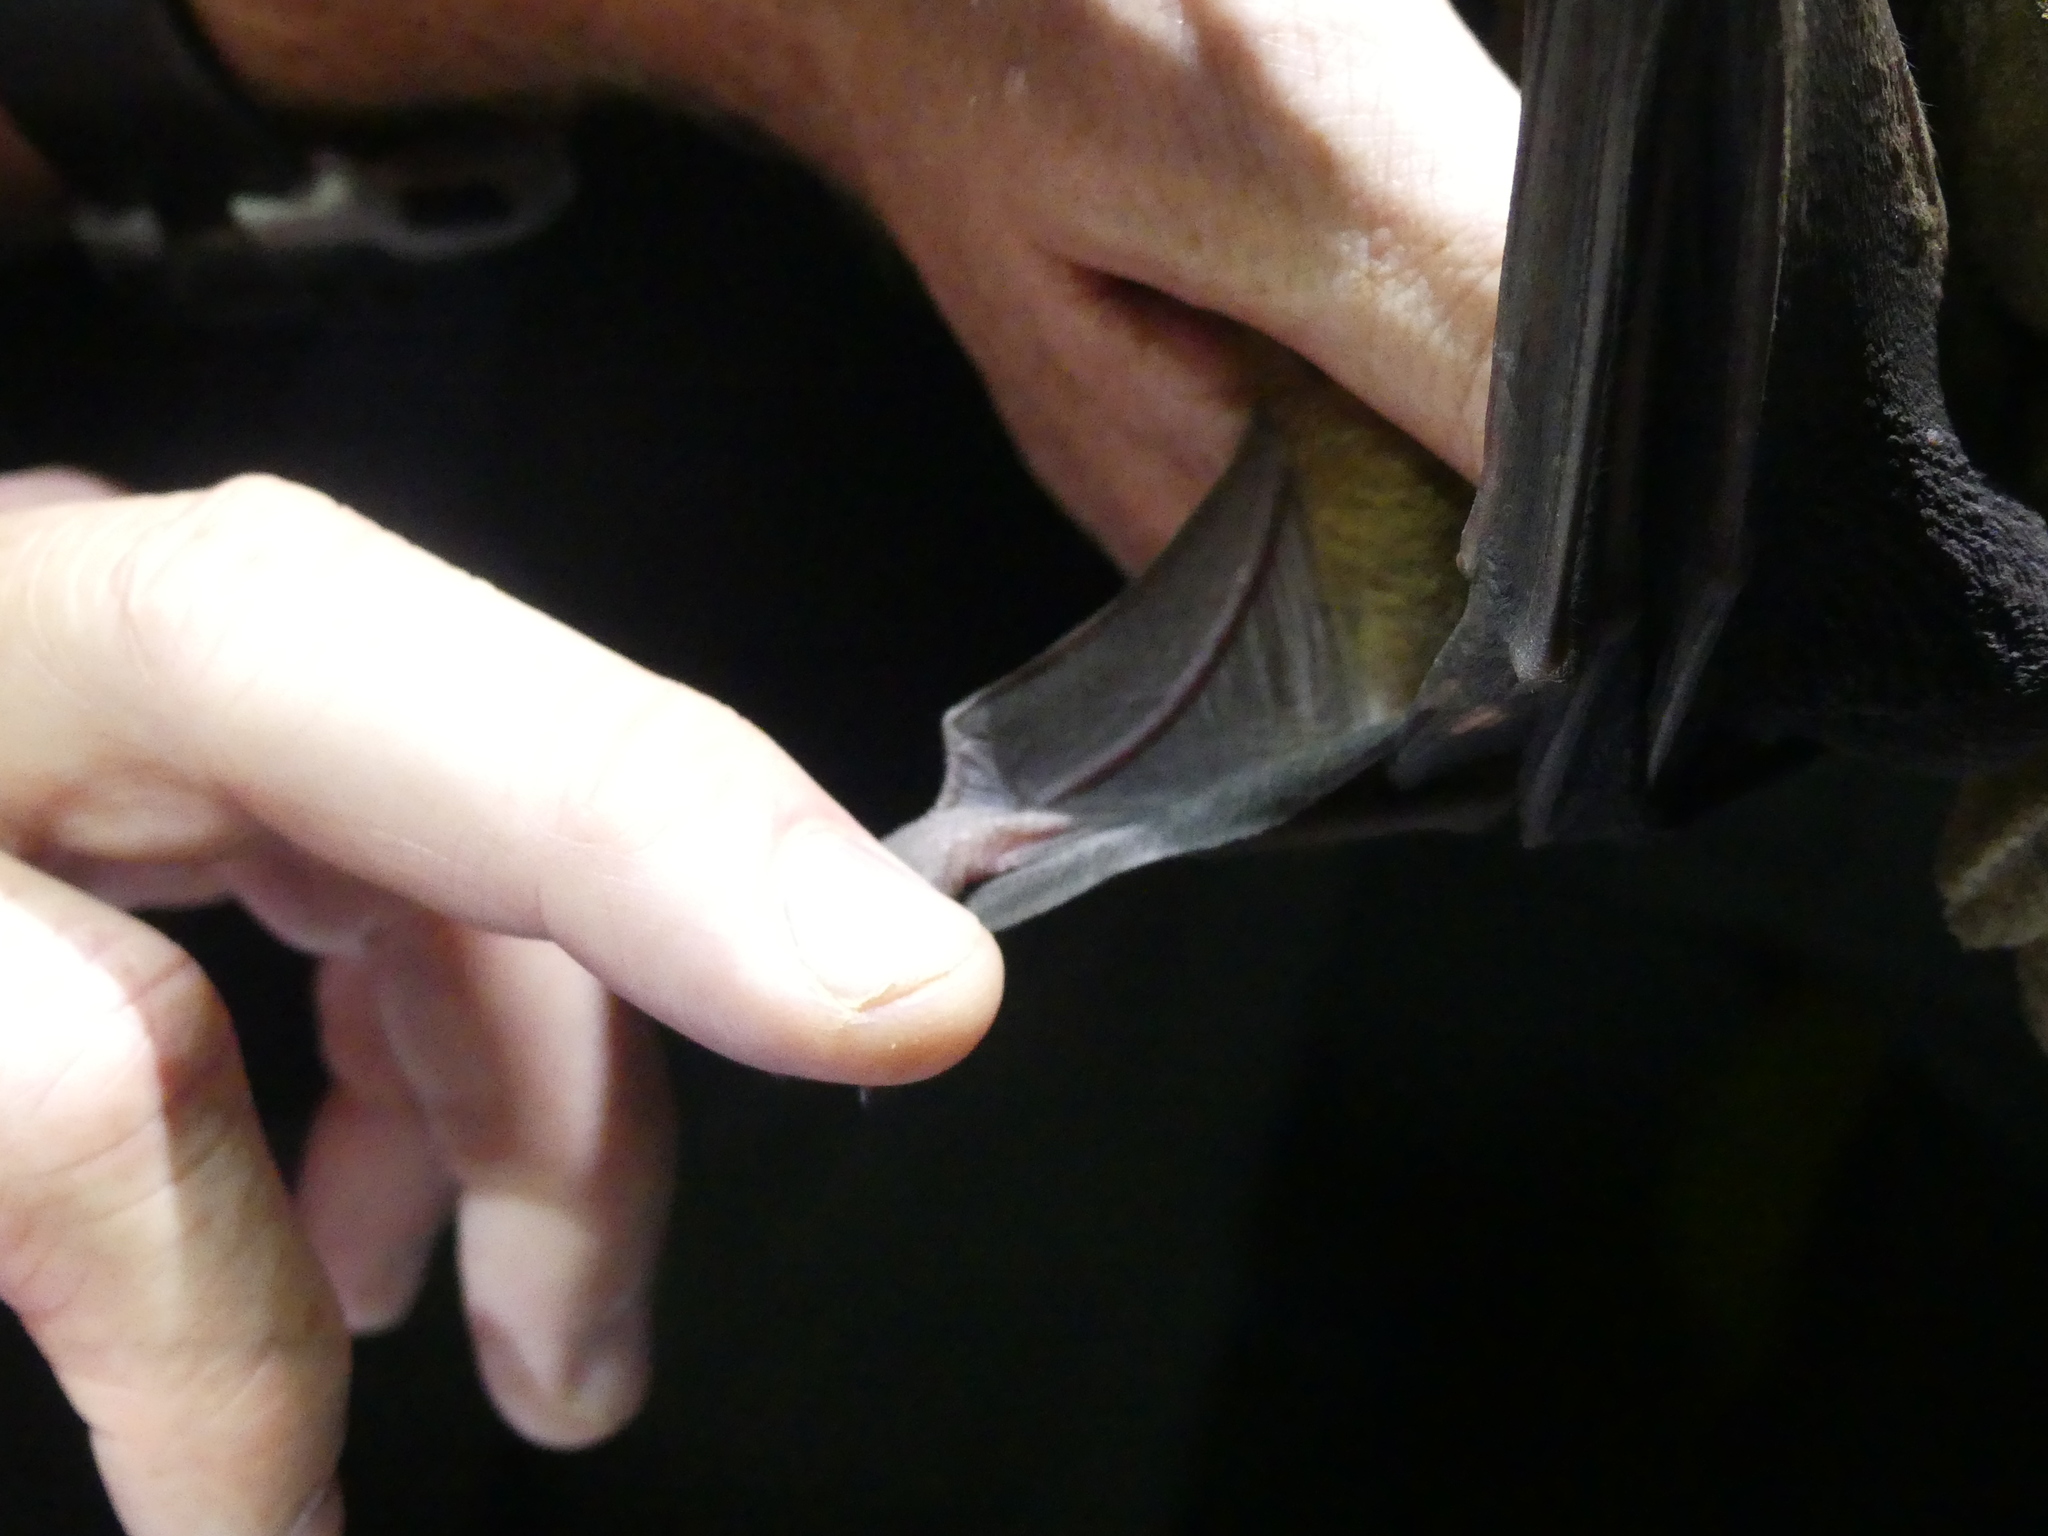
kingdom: Animalia
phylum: Chordata
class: Mammalia
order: Chiroptera
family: Pteropodidae
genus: Rousettus
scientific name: Rousettus aegyptiacus
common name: Egyptian rousette
